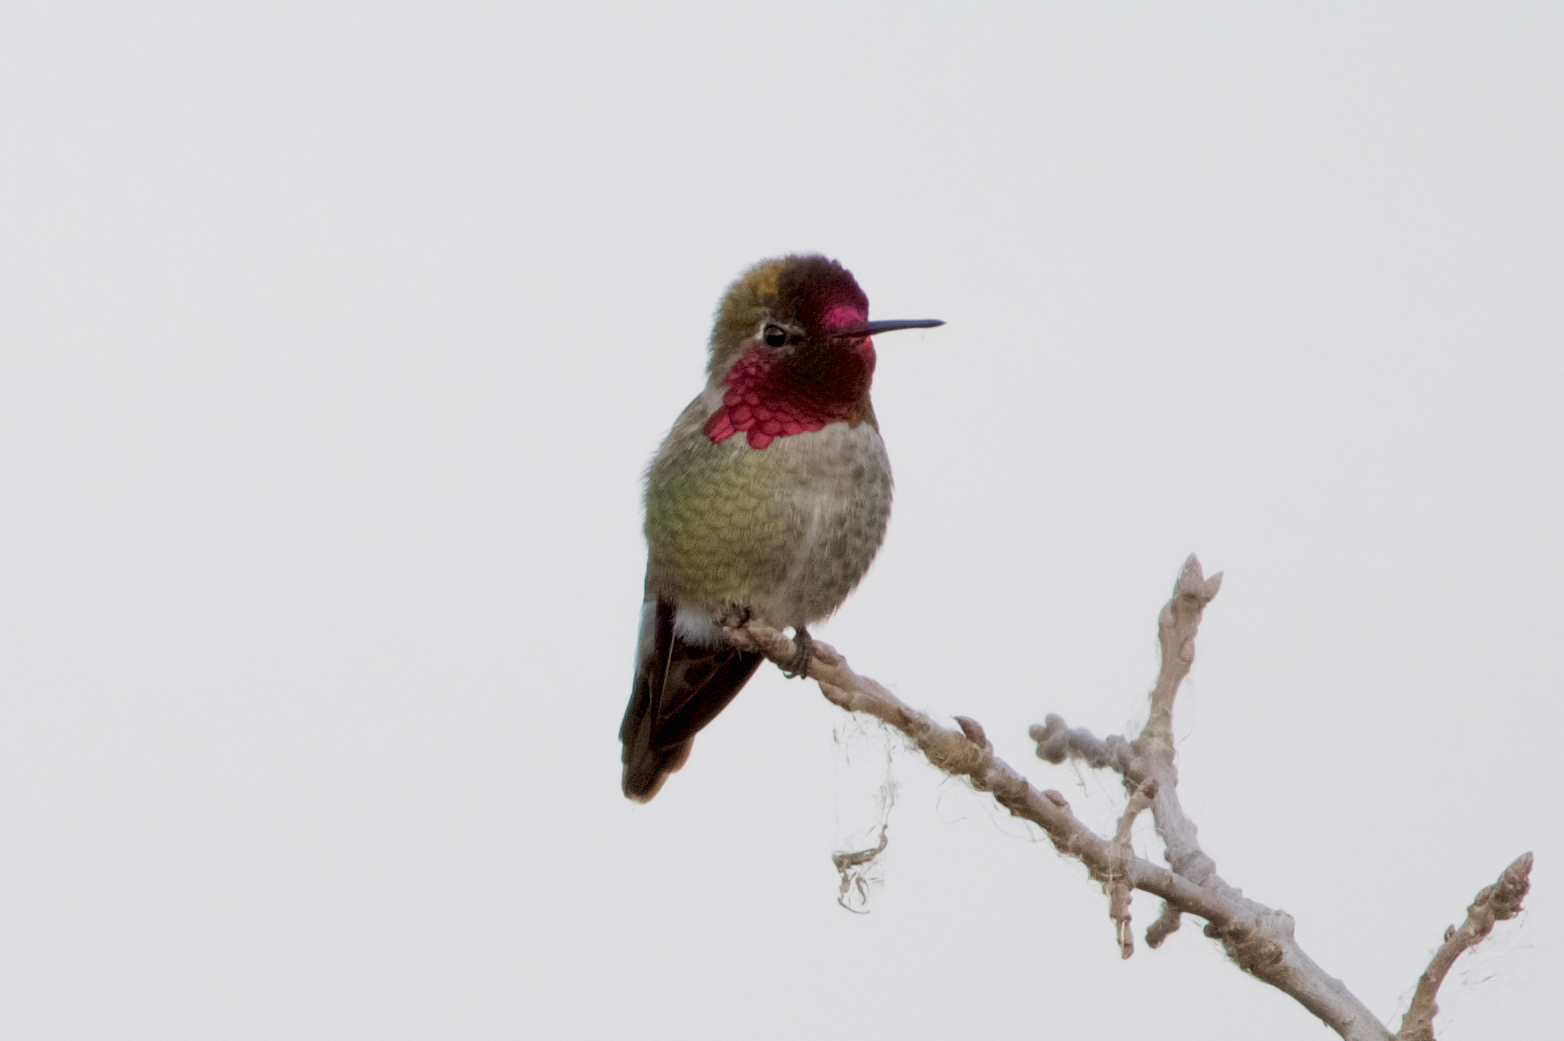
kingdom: Animalia
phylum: Chordata
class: Aves
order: Apodiformes
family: Trochilidae
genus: Calypte
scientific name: Calypte anna
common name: Anna's hummingbird
